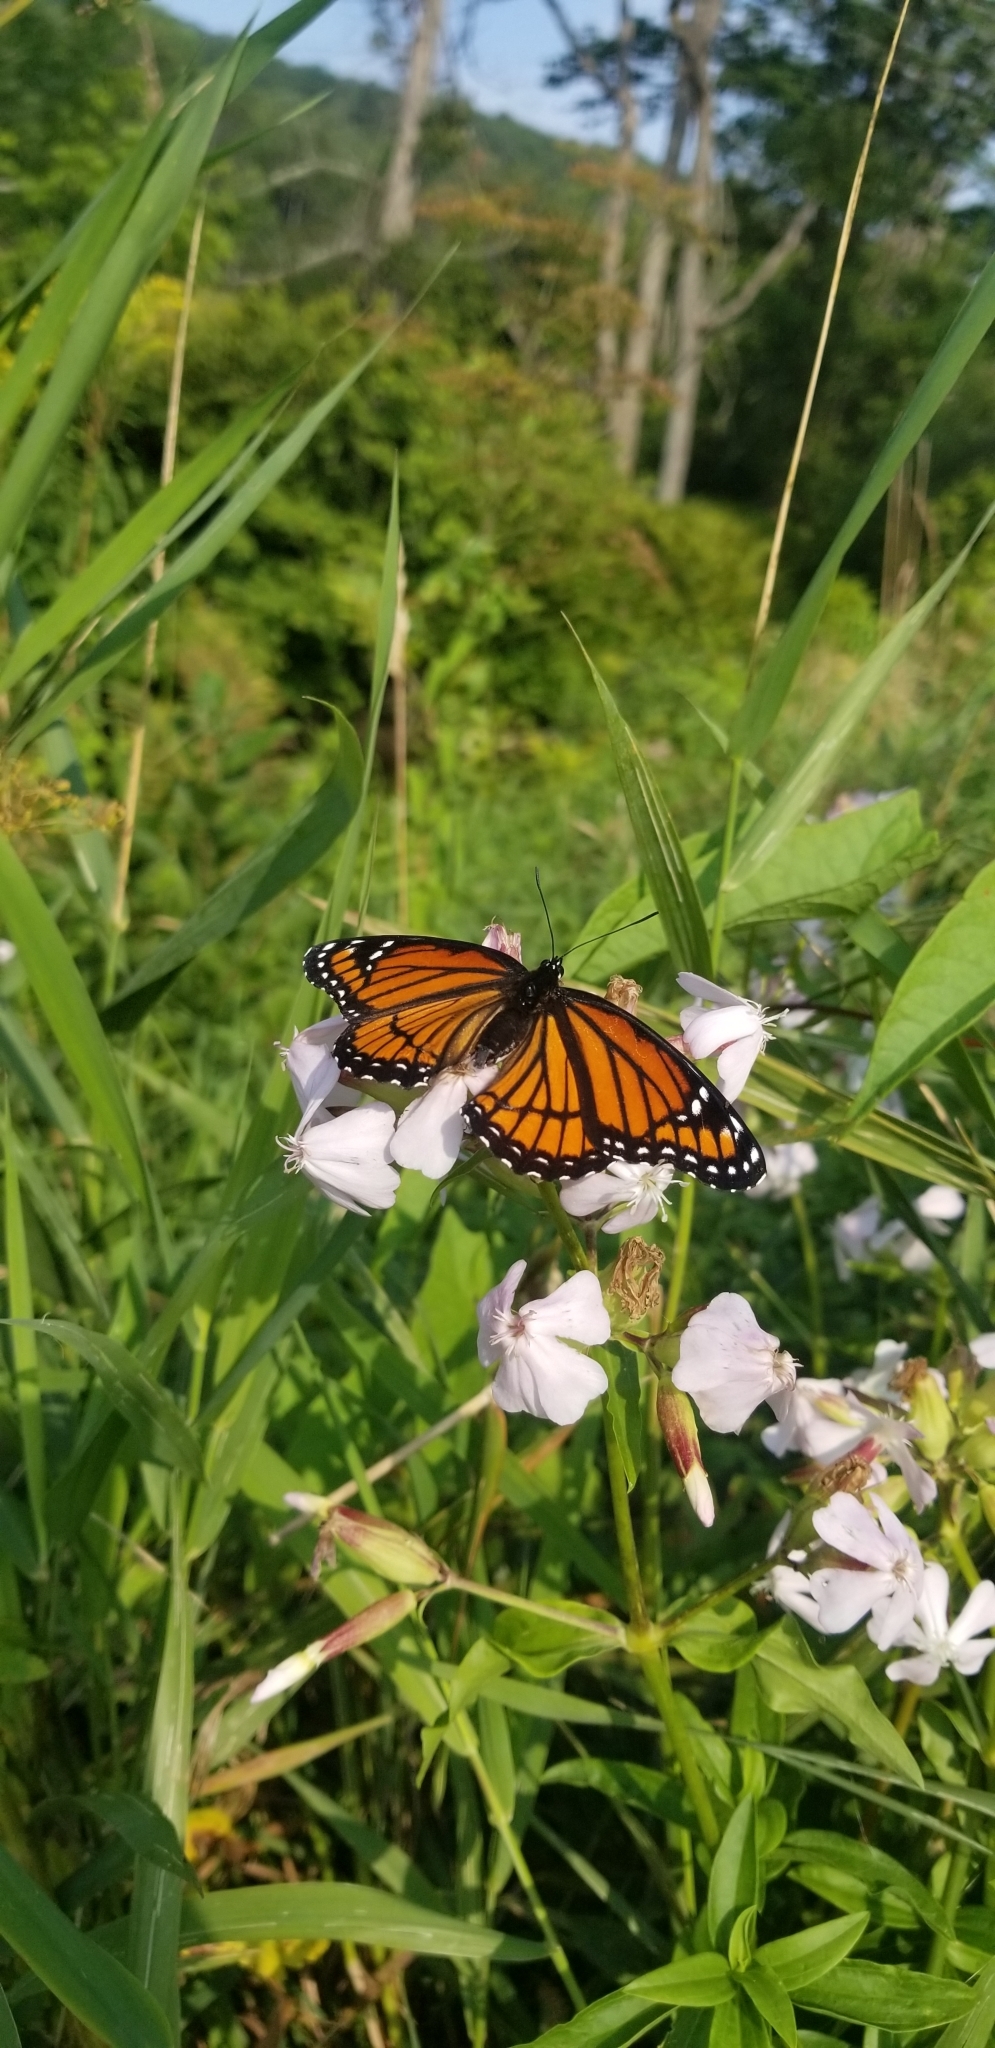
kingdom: Animalia
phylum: Arthropoda
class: Insecta
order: Lepidoptera
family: Nymphalidae
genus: Limenitis
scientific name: Limenitis archippus
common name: Viceroy
